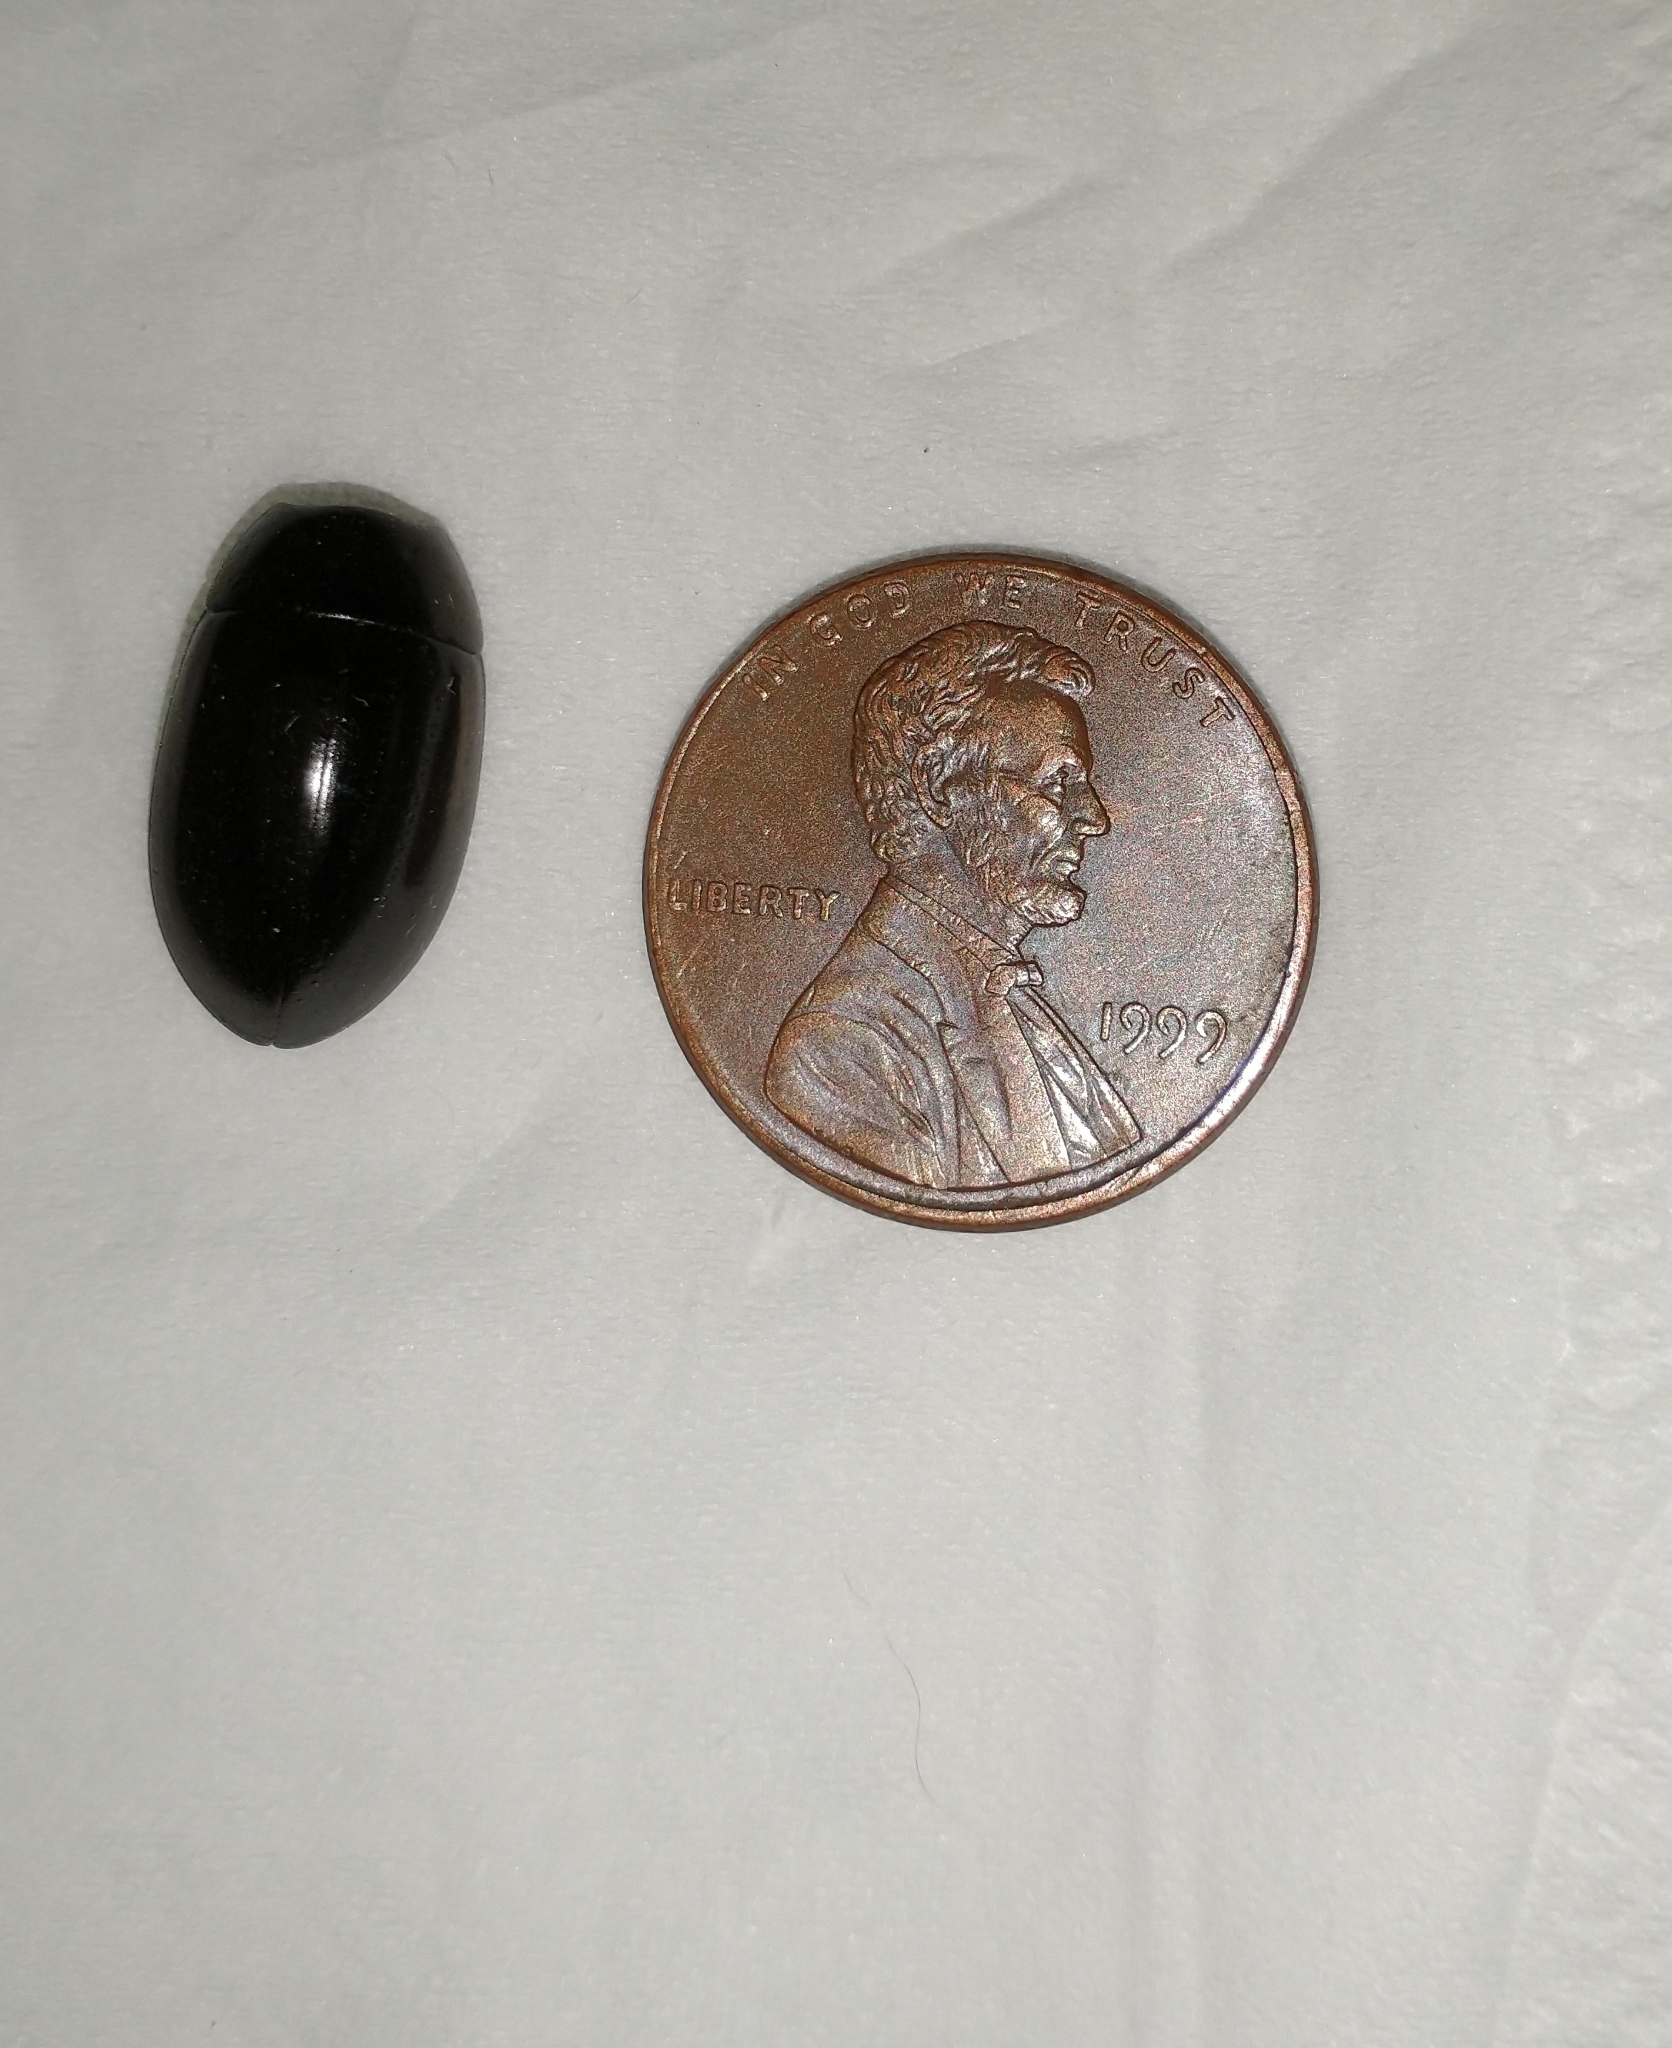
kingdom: Animalia
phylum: Arthropoda
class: Insecta
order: Coleoptera
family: Hydrophilidae
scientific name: Hydrophilidae
